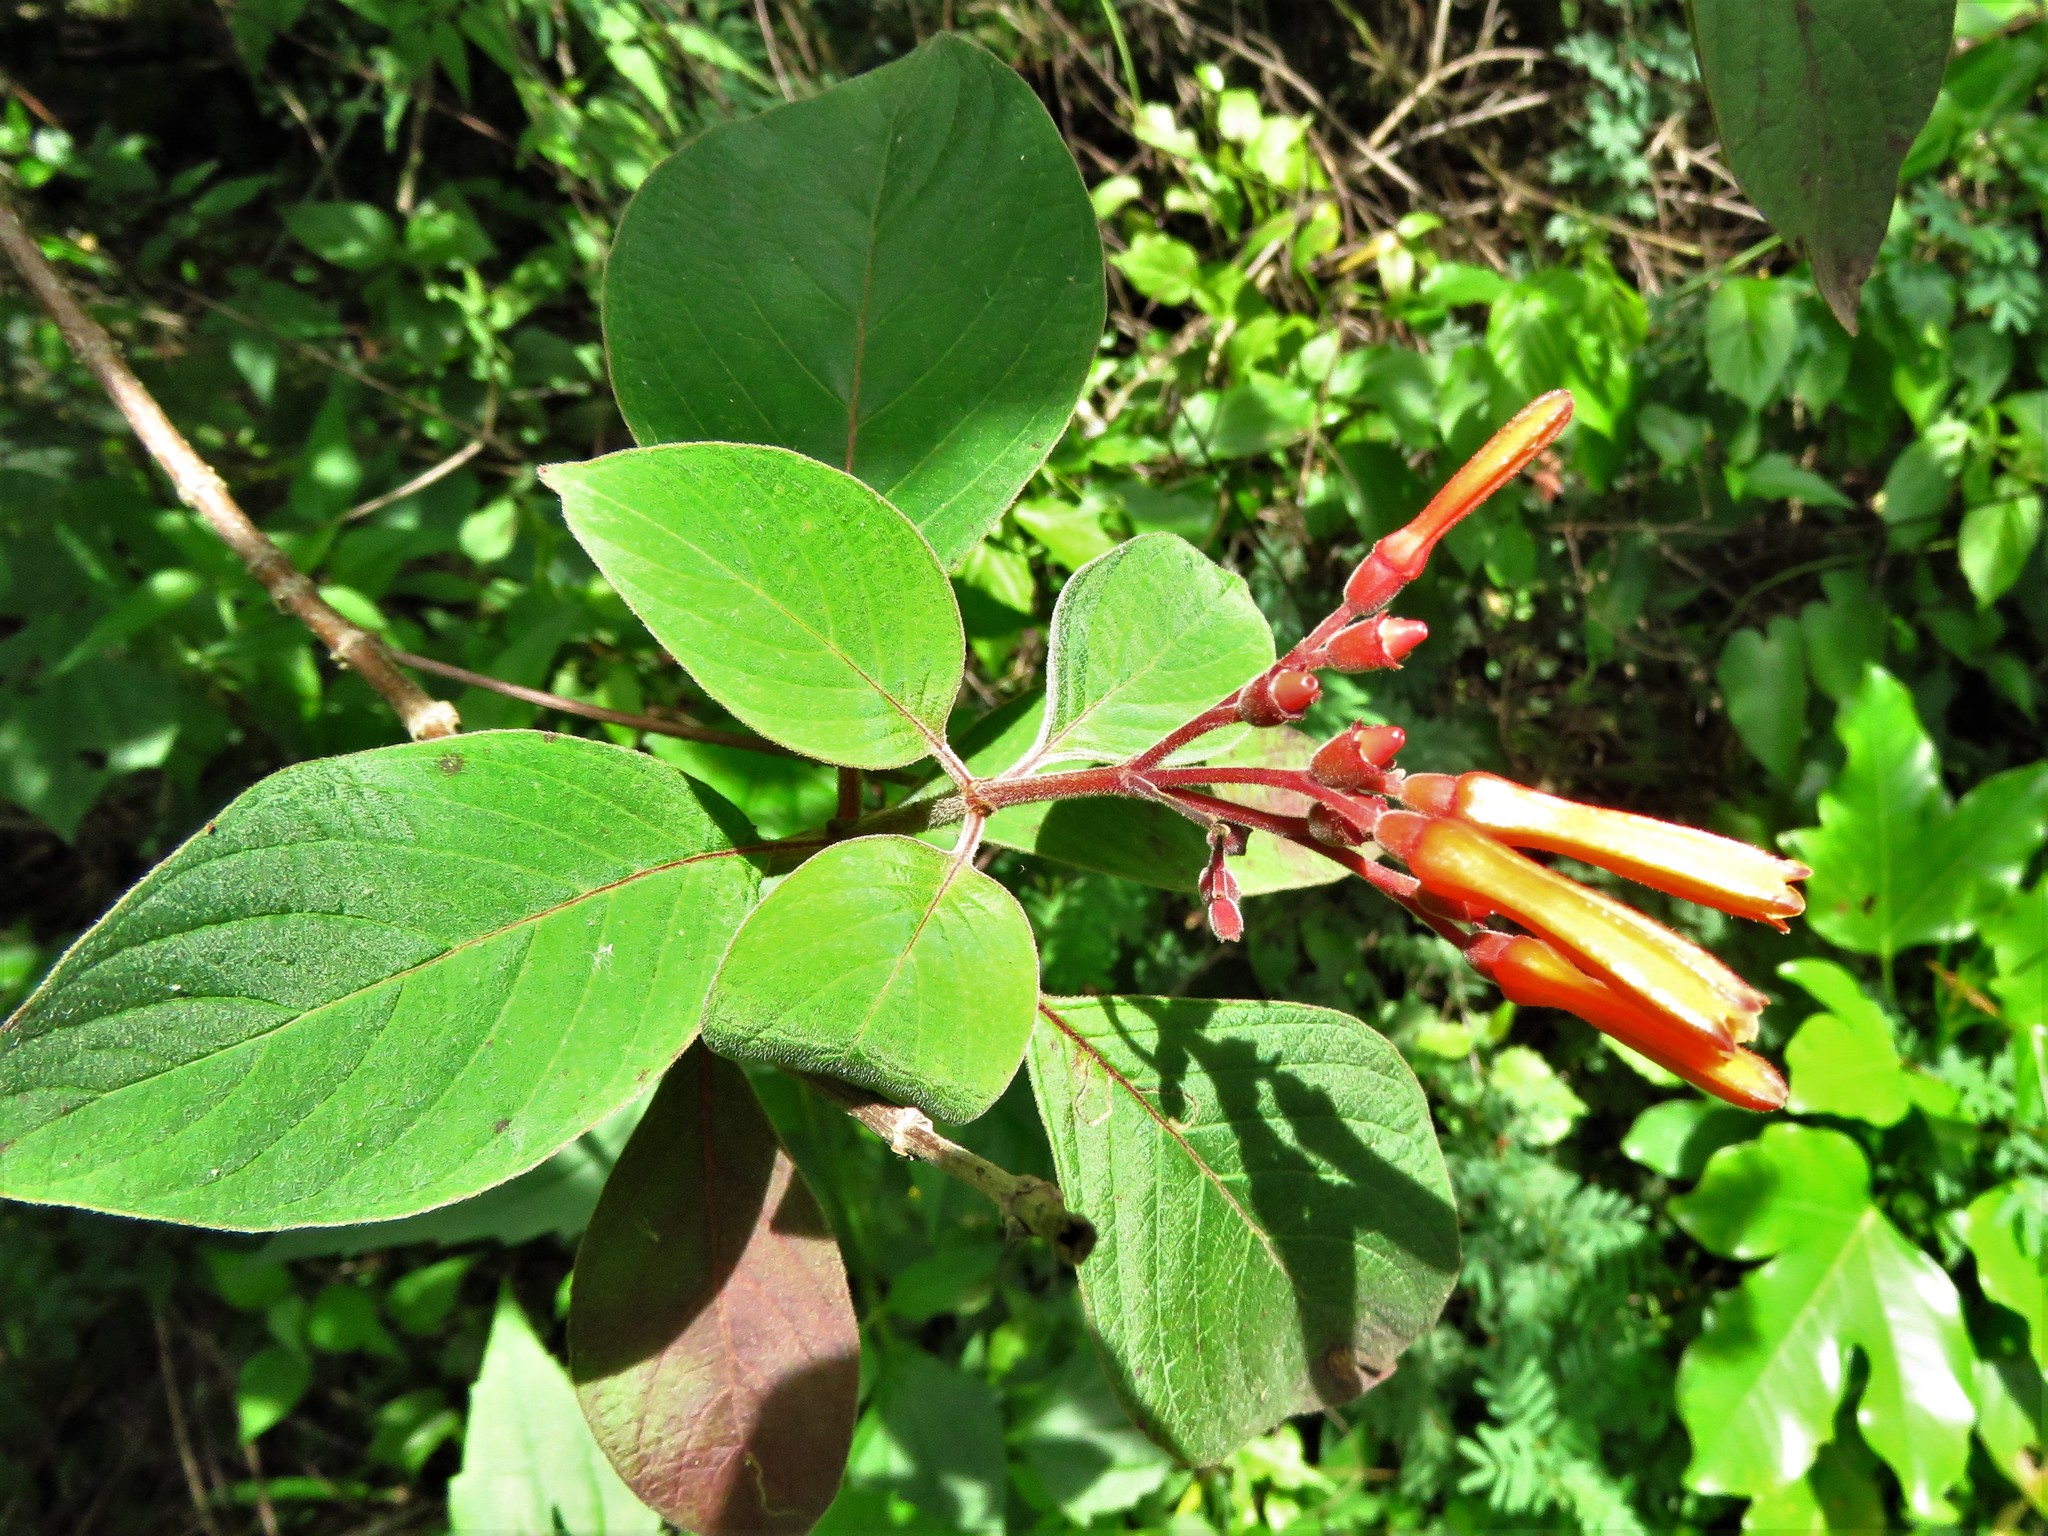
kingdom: Plantae
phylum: Tracheophyta
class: Magnoliopsida
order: Gentianales
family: Rubiaceae
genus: Hamelia
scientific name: Hamelia patens
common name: Redhead
